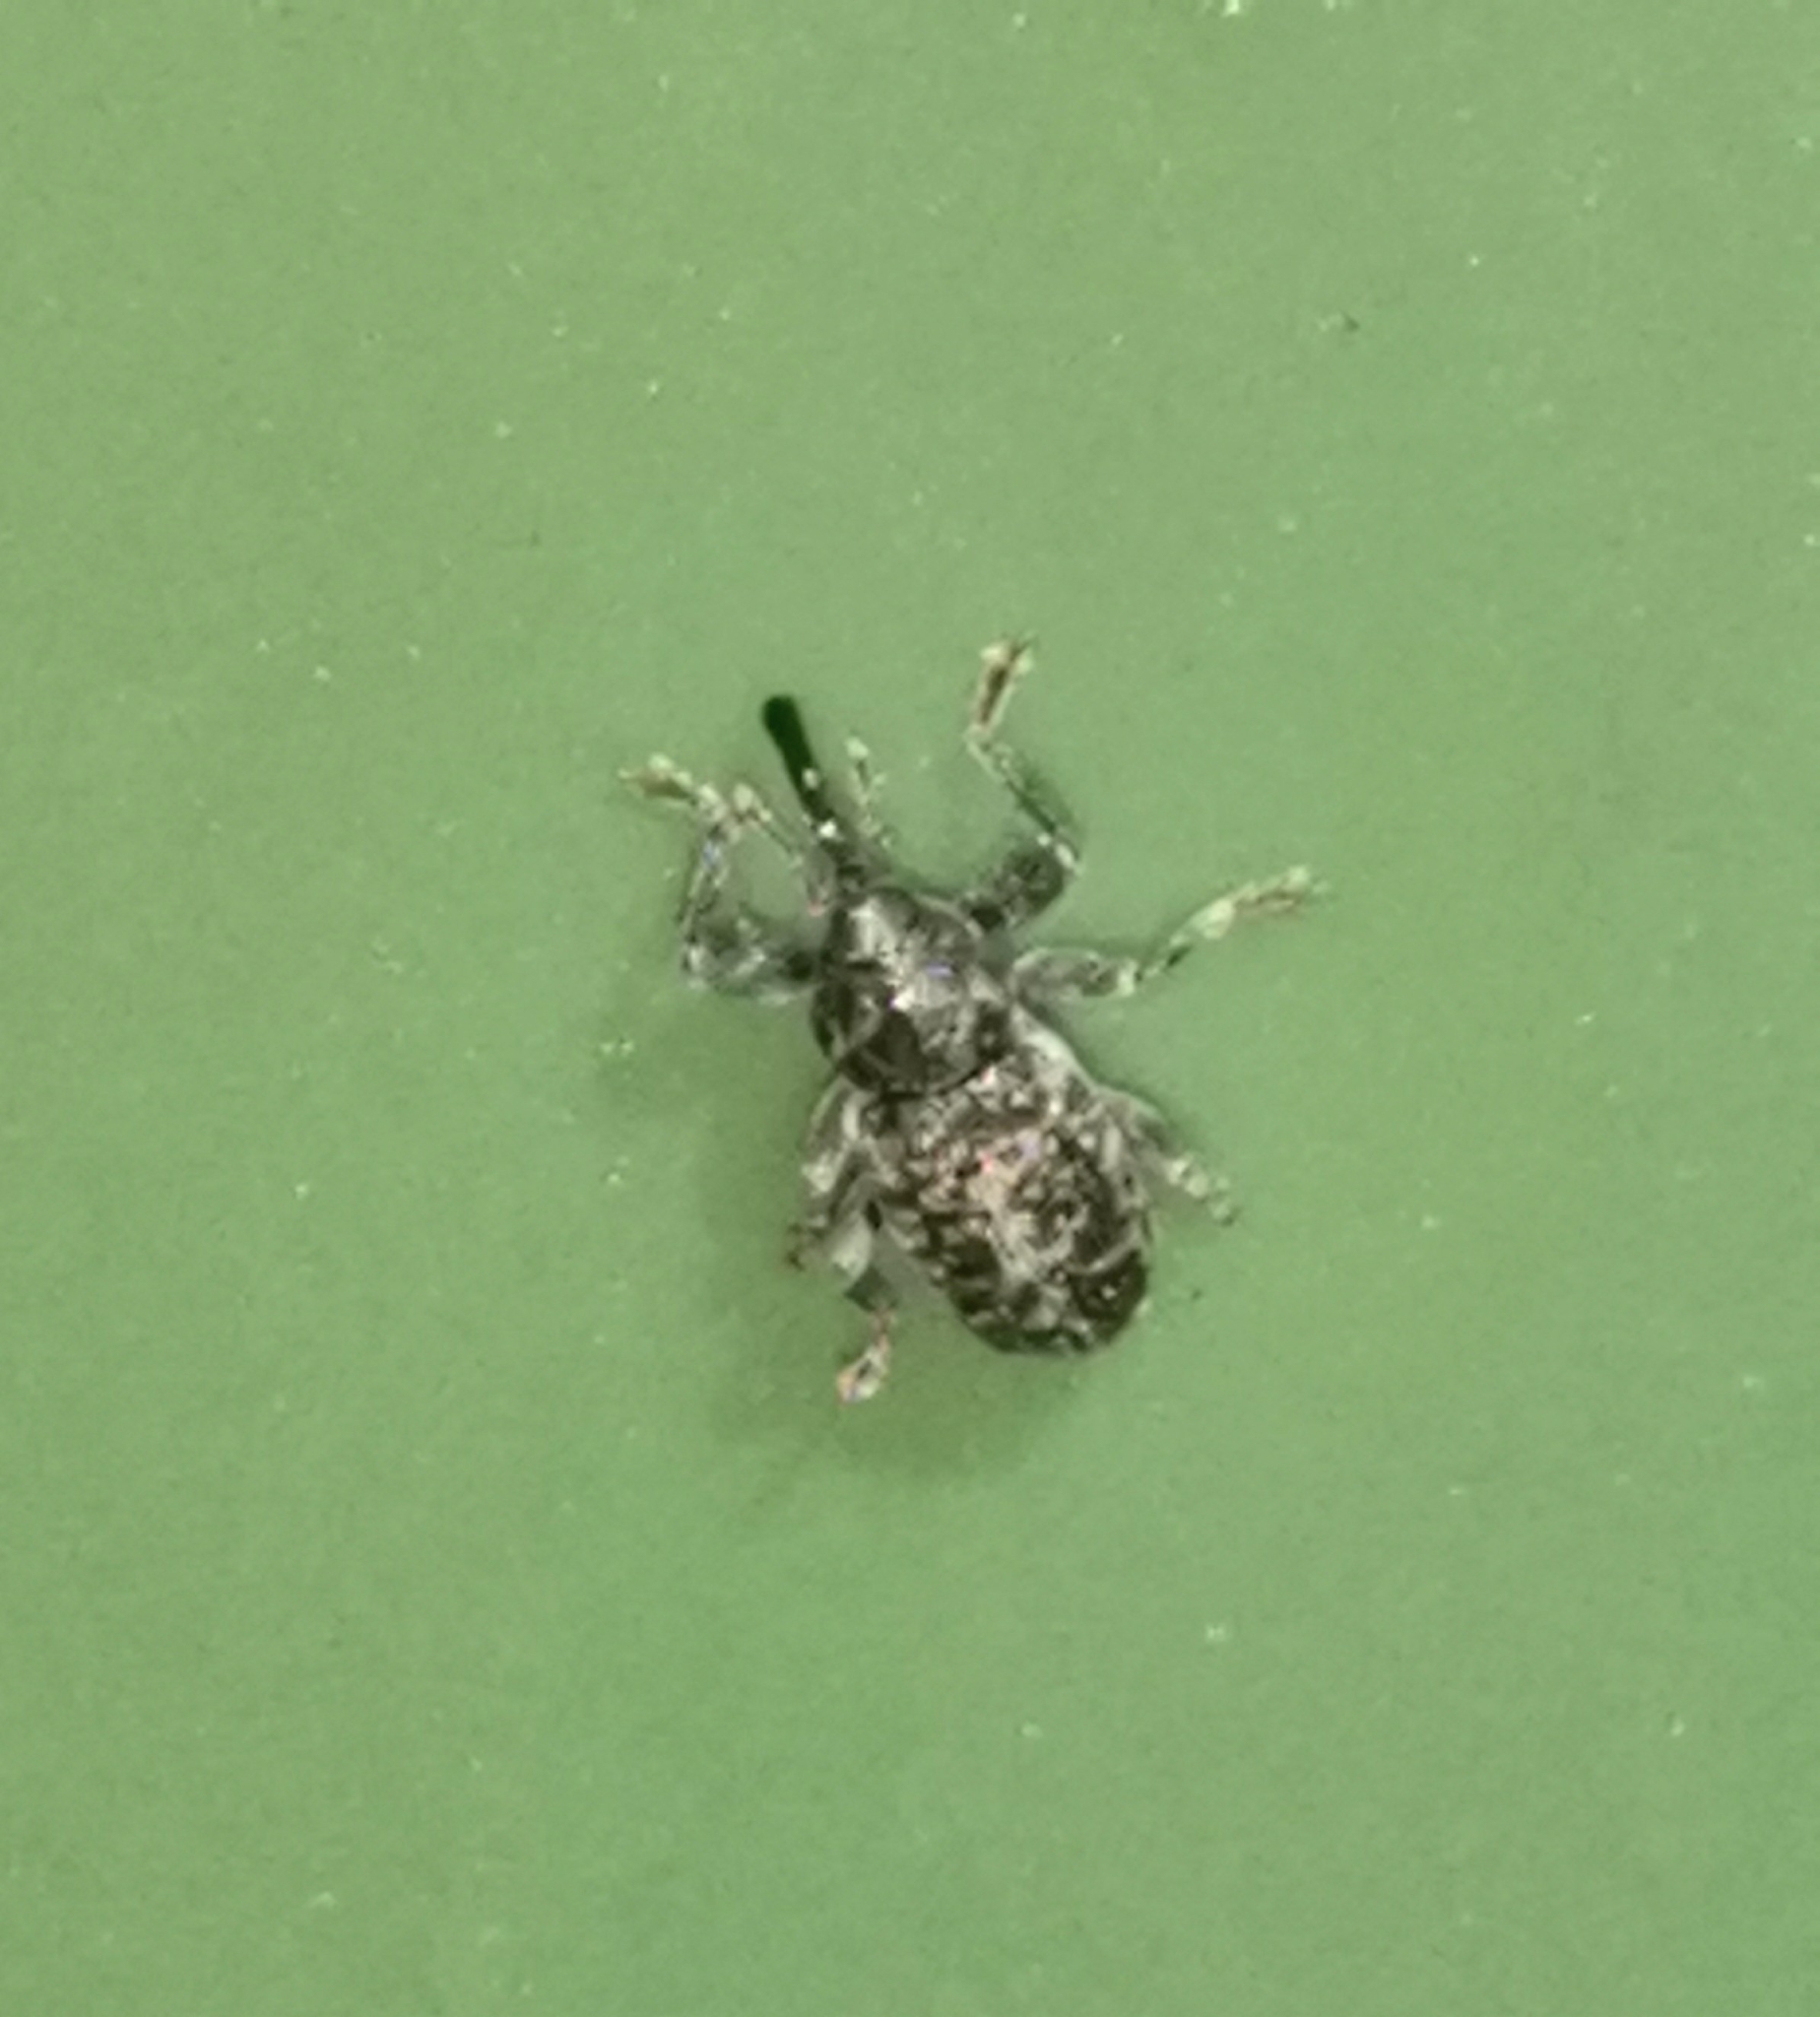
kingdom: Animalia
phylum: Arthropoda
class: Insecta
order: Coleoptera
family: Curculionidae
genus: Dorytomus
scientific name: Dorytomus tremulae
